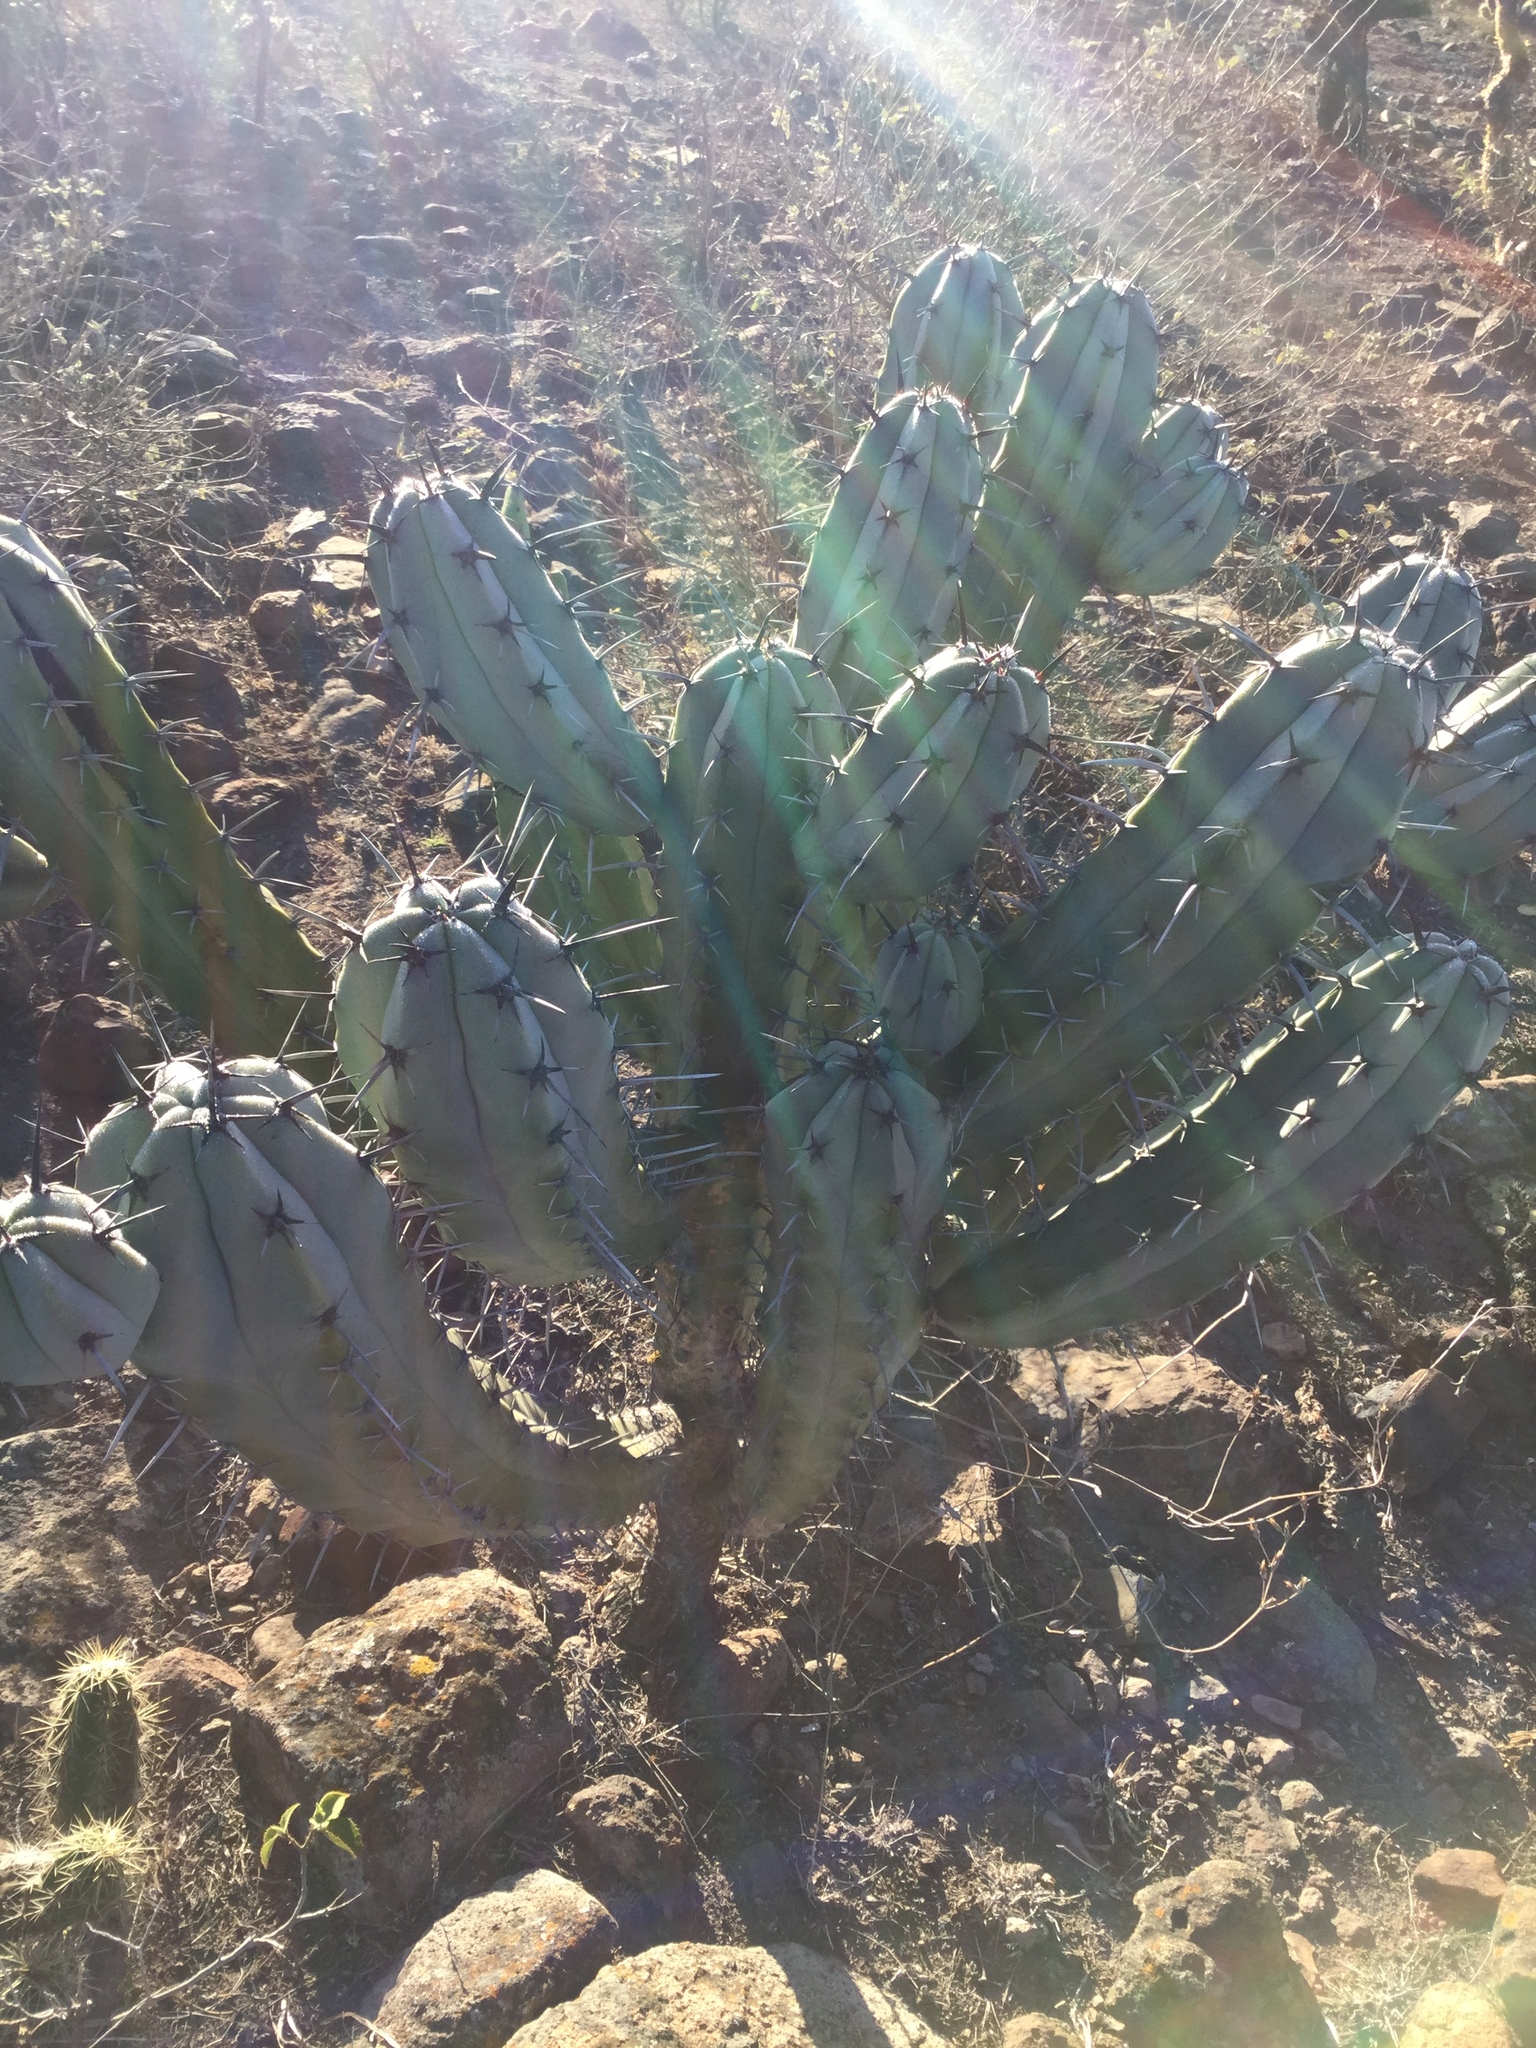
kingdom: Plantae
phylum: Tracheophyta
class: Magnoliopsida
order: Caryophyllales
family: Cactaceae
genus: Myrtillocactus
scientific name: Myrtillocactus geometrizans
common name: Bilberry cactus
